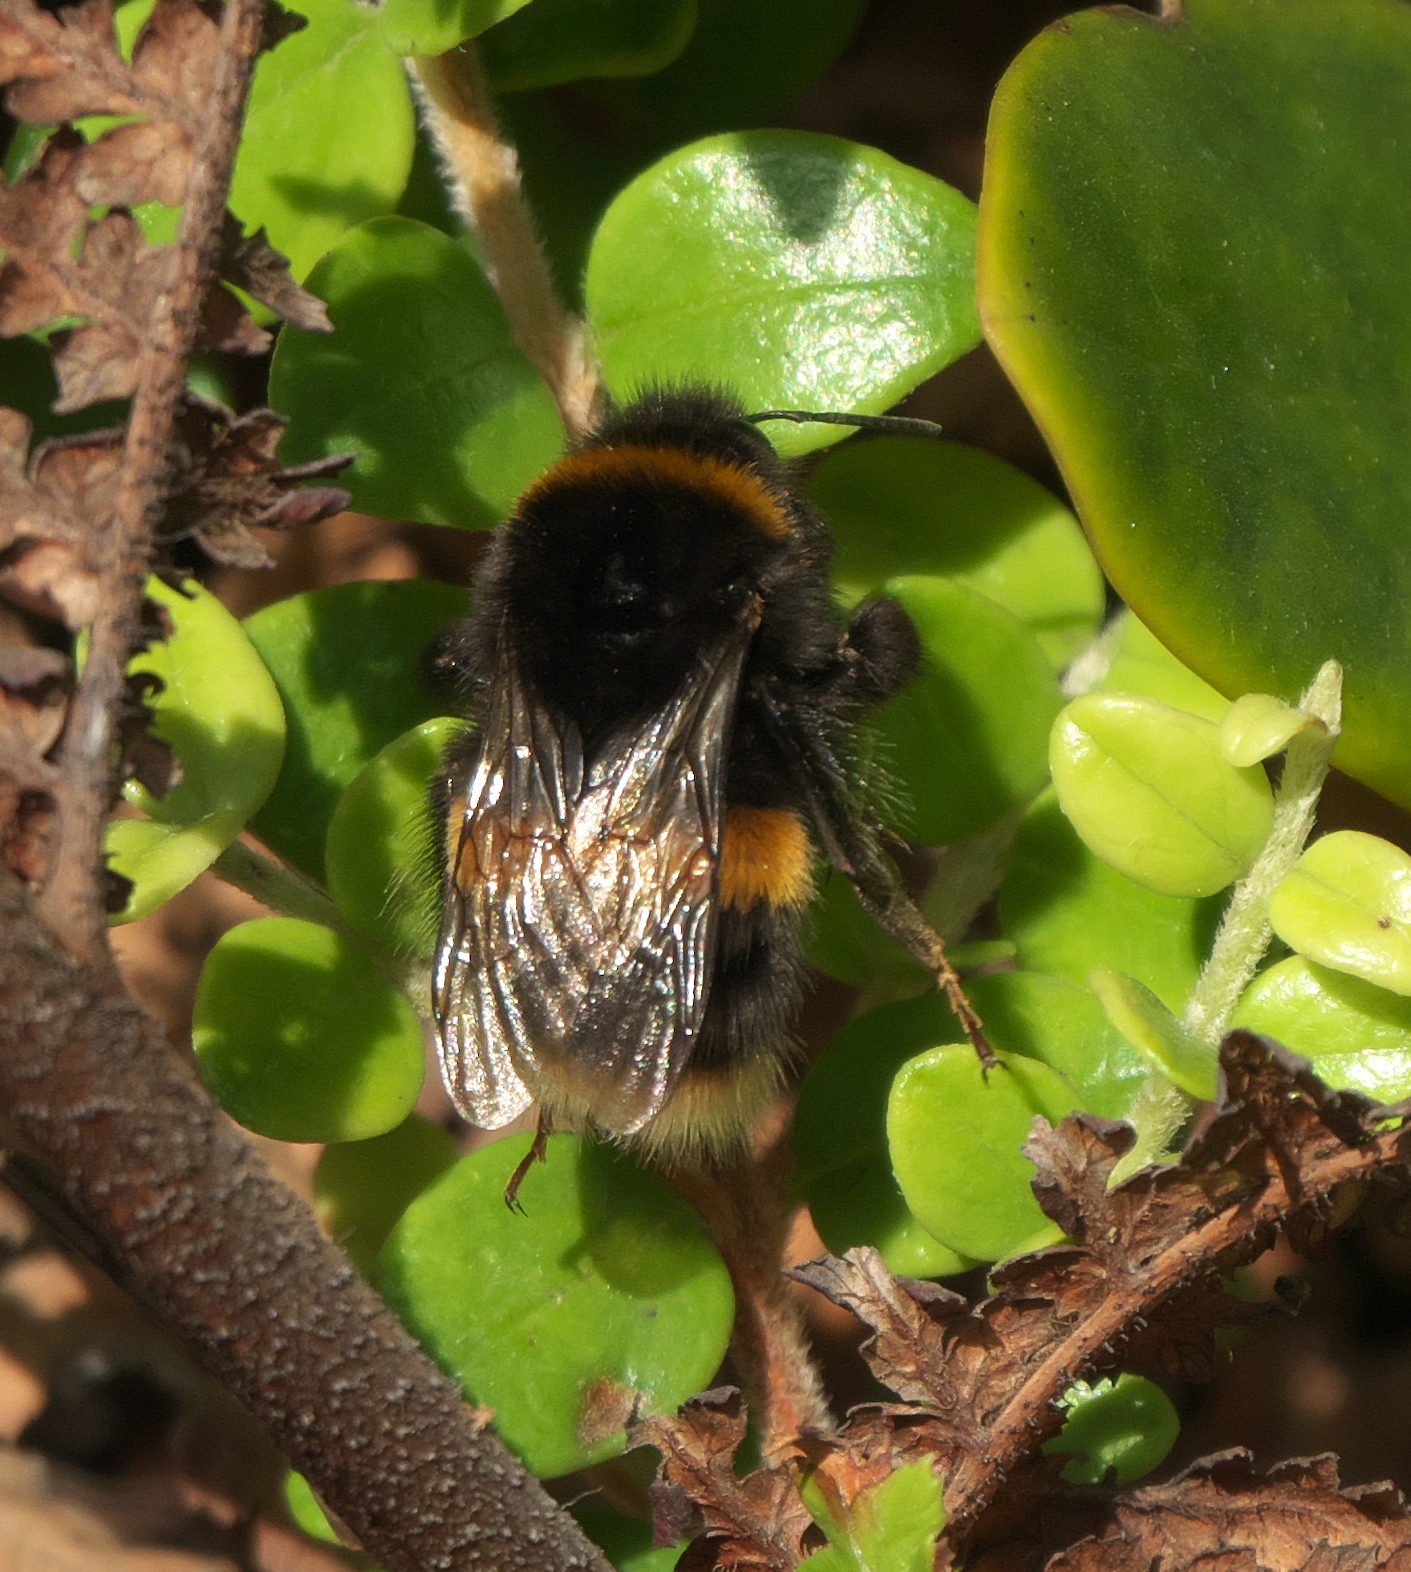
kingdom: Animalia
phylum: Arthropoda
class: Insecta
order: Hymenoptera
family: Apidae
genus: Bombus
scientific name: Bombus terrestris
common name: Buff-tailed bumblebee
